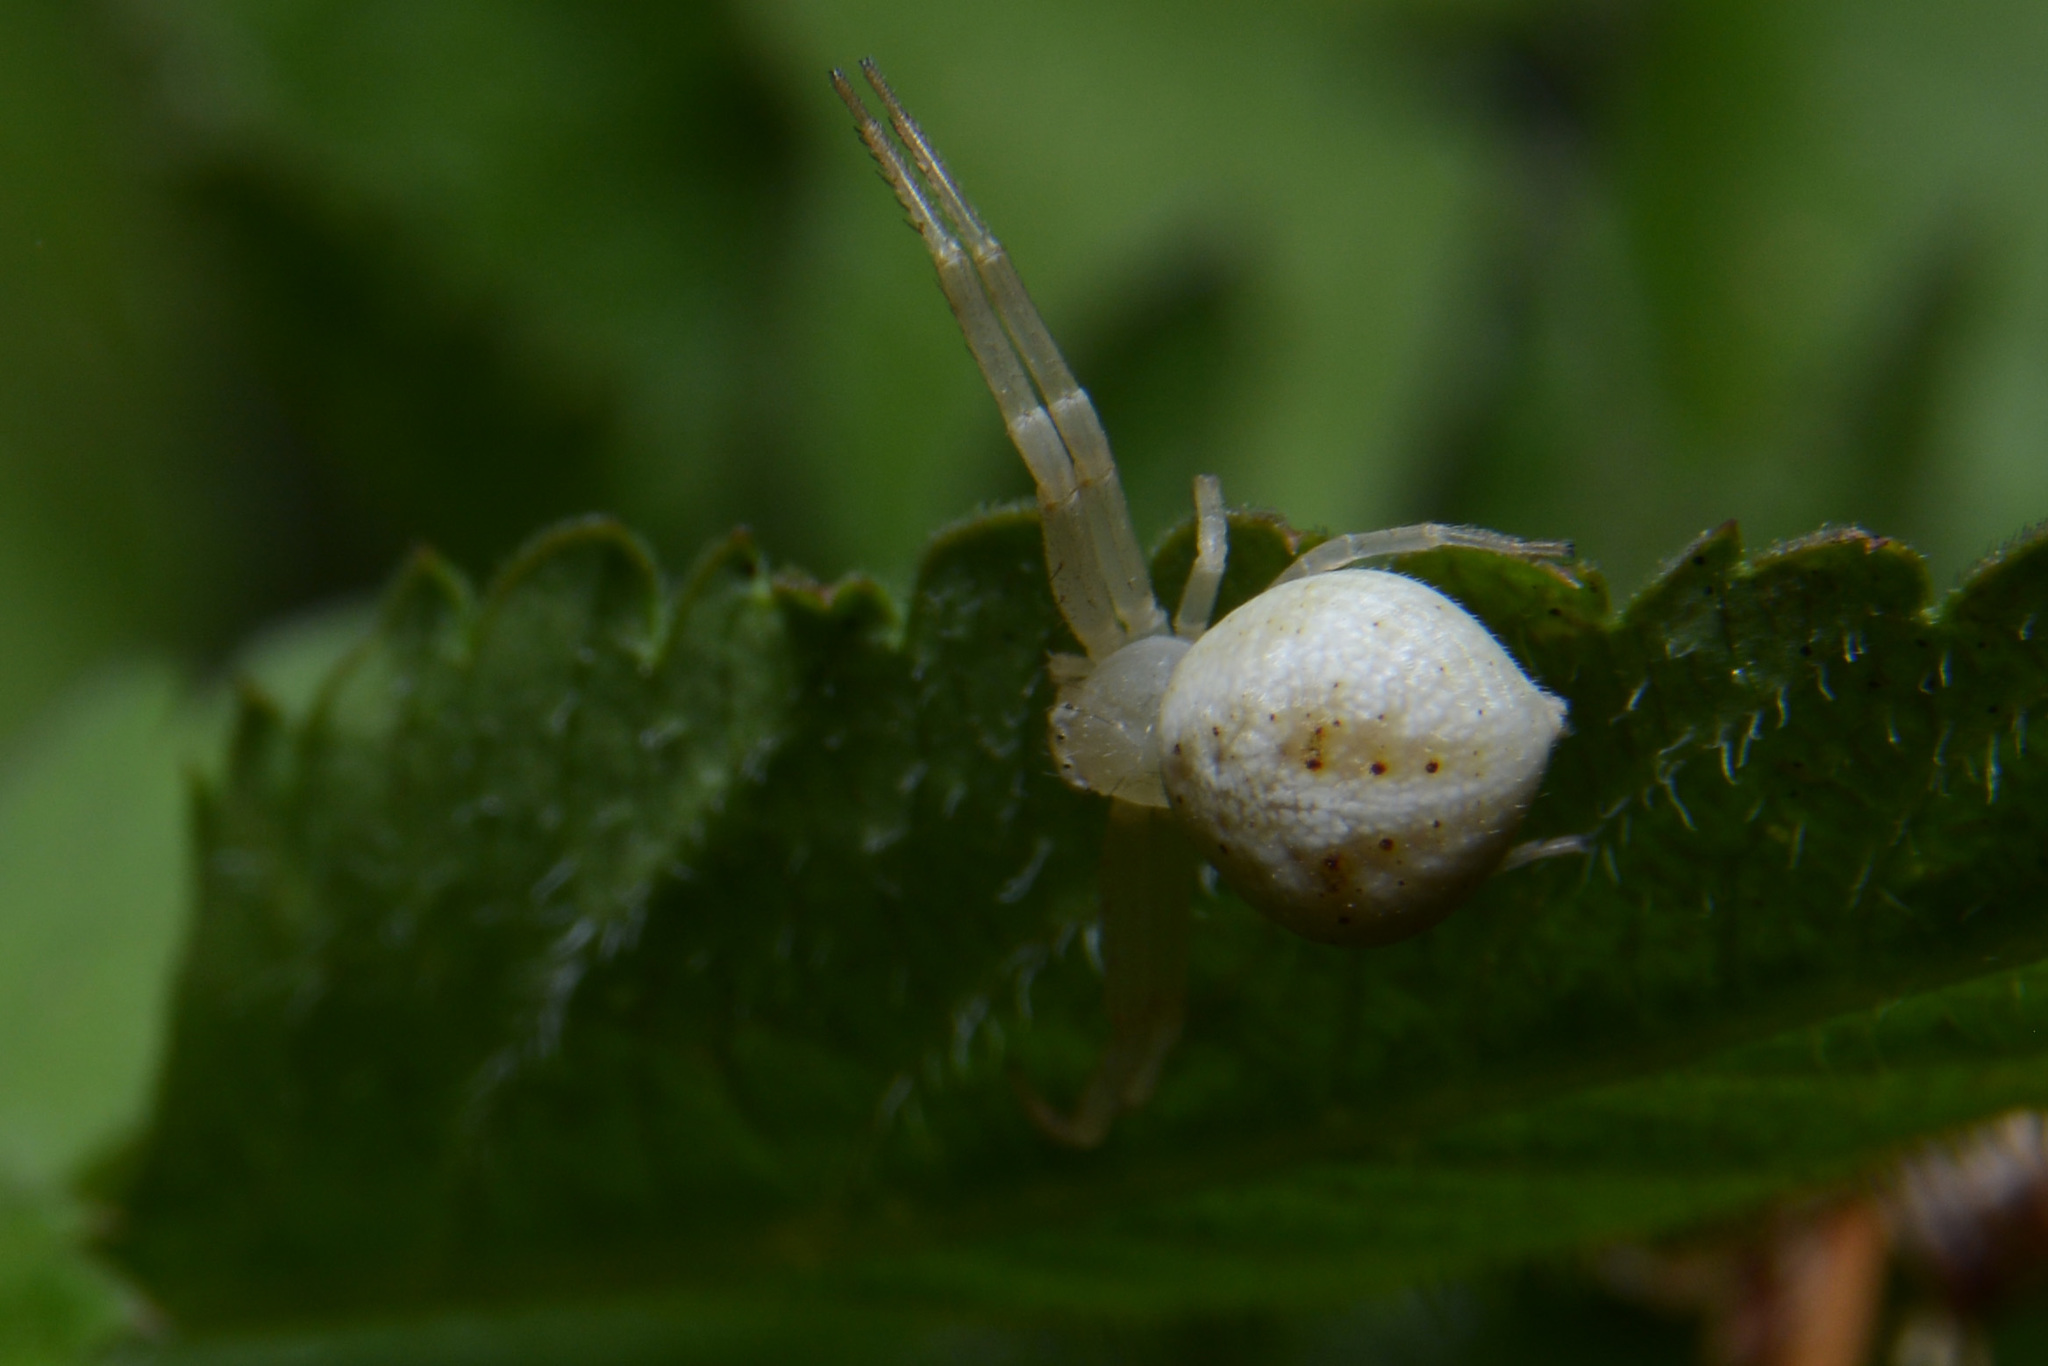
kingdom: Animalia
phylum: Arthropoda
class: Arachnida
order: Araneae
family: Thomisidae
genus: Misumenops
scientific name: Misumenops
